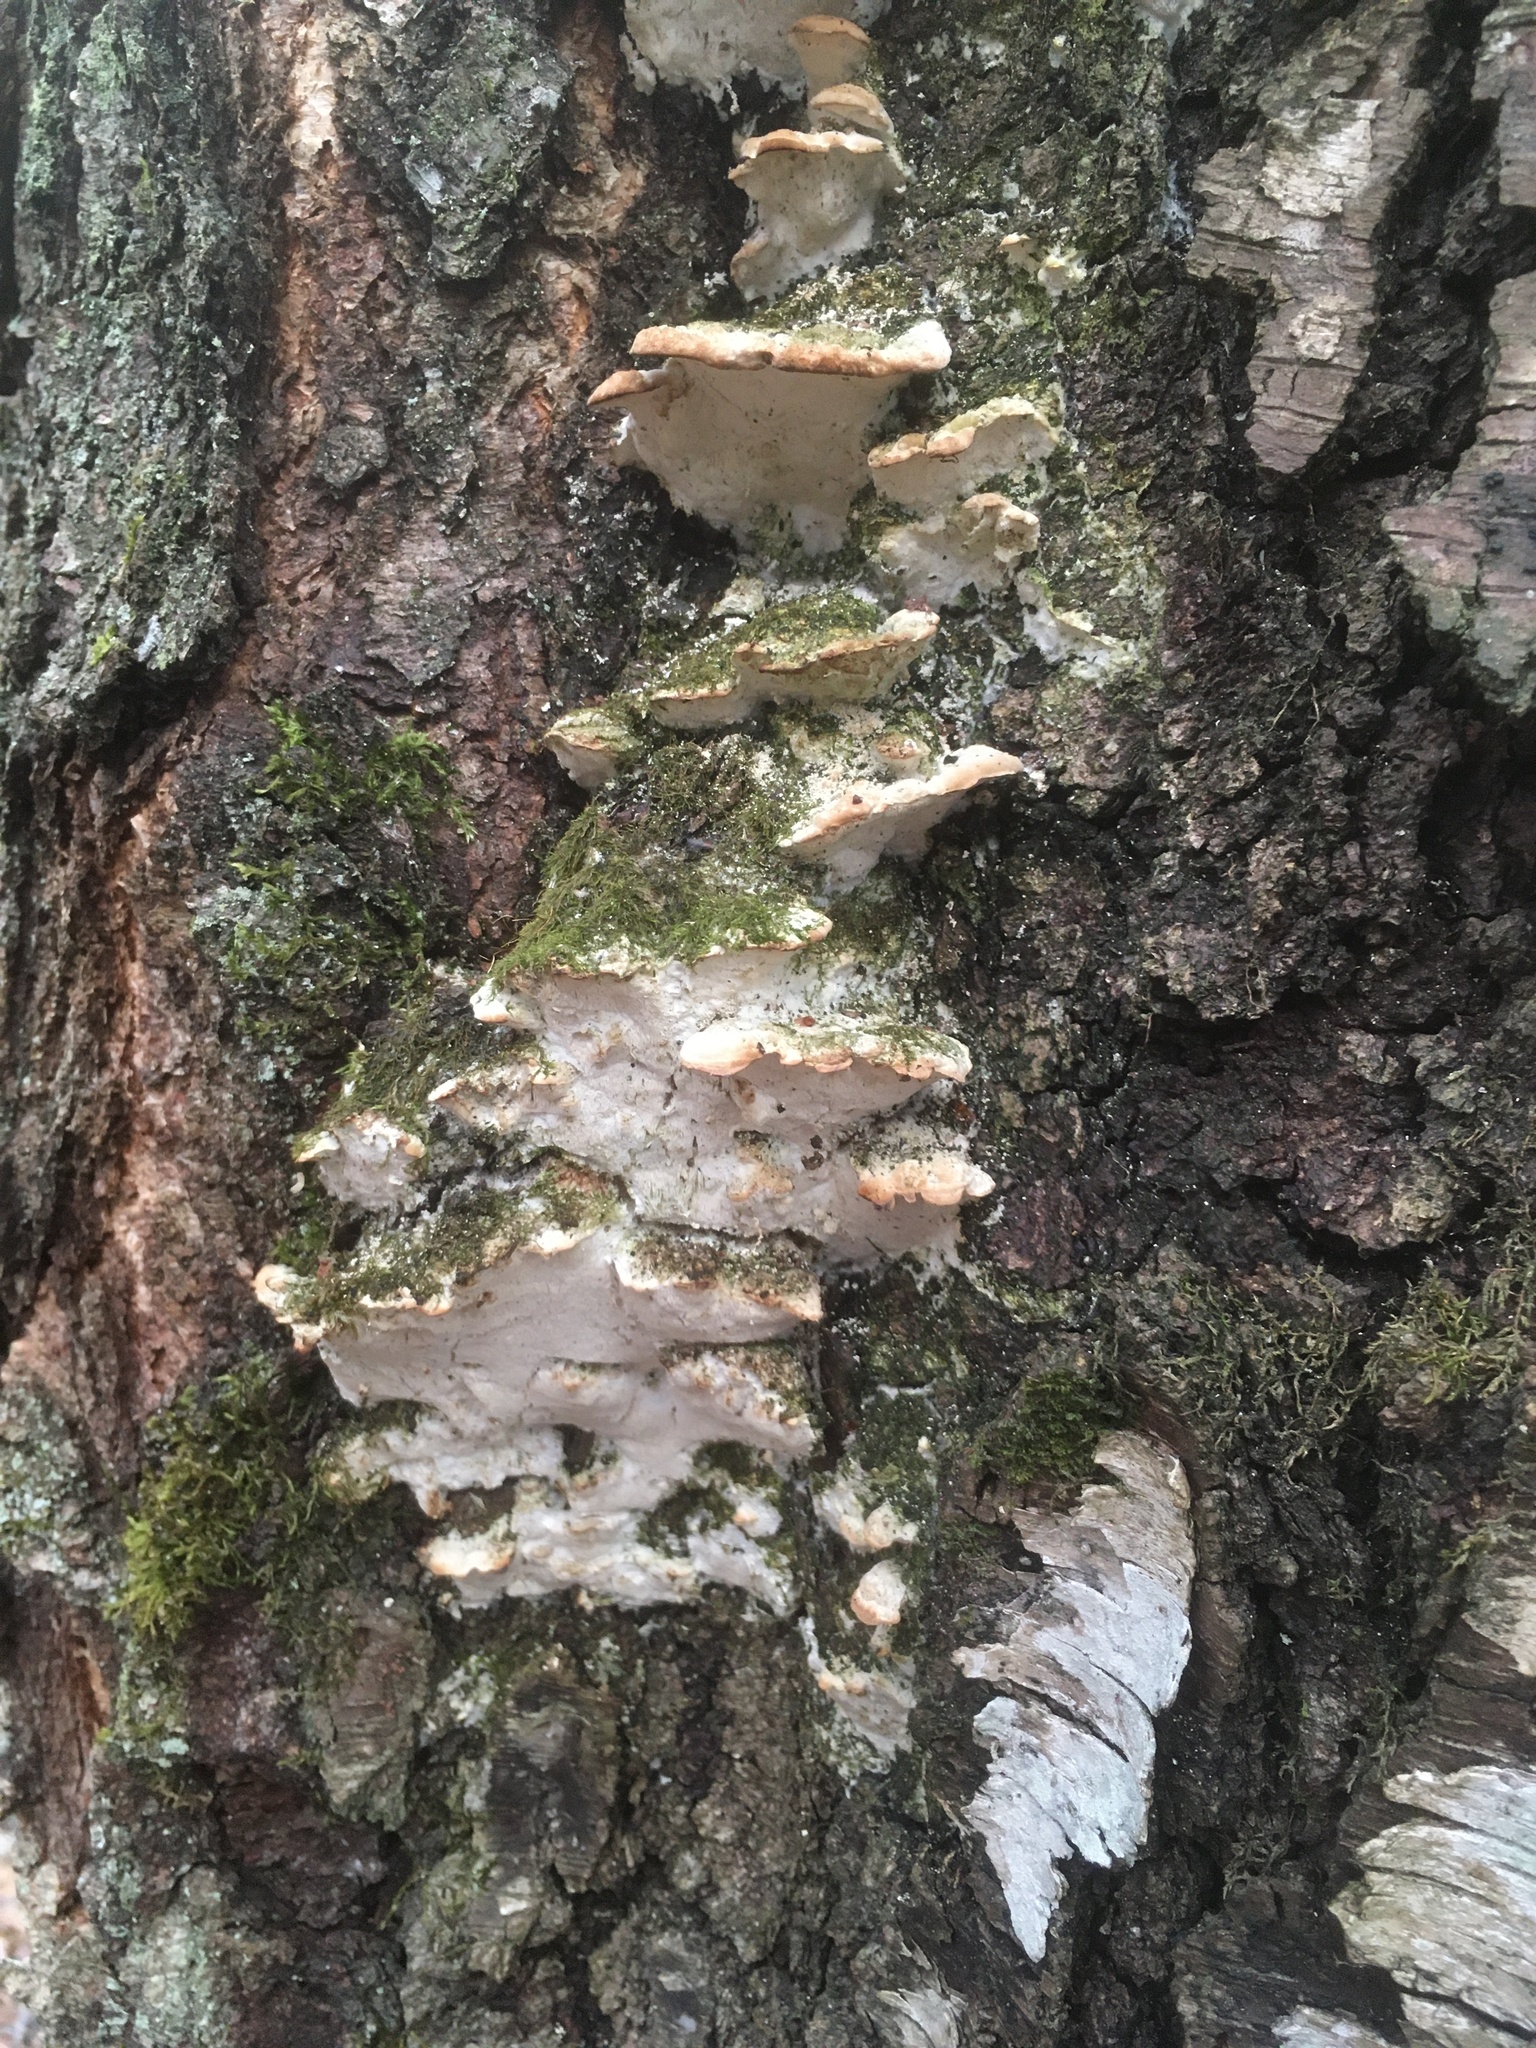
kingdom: Fungi
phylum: Basidiomycota
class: Agaricomycetes
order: Hymenochaetales
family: Oxyporaceae
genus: Oxyporus
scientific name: Oxyporus populinus
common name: Poplar bracket
